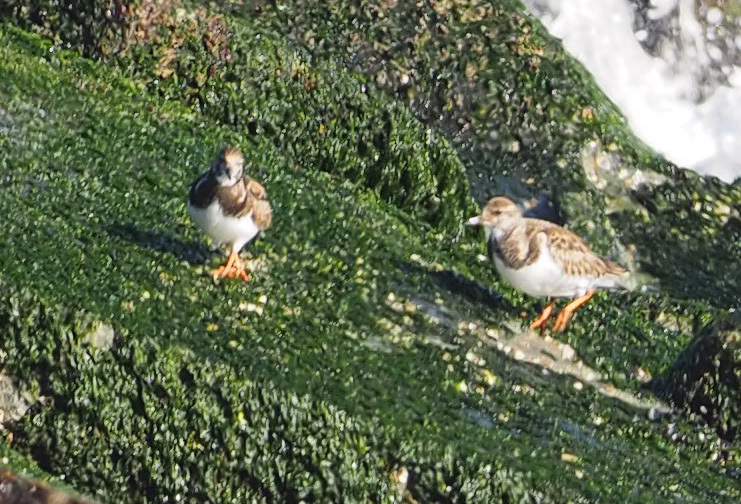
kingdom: Animalia
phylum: Chordata
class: Aves
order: Charadriiformes
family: Scolopacidae
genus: Arenaria
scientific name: Arenaria interpres
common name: Ruddy turnstone
